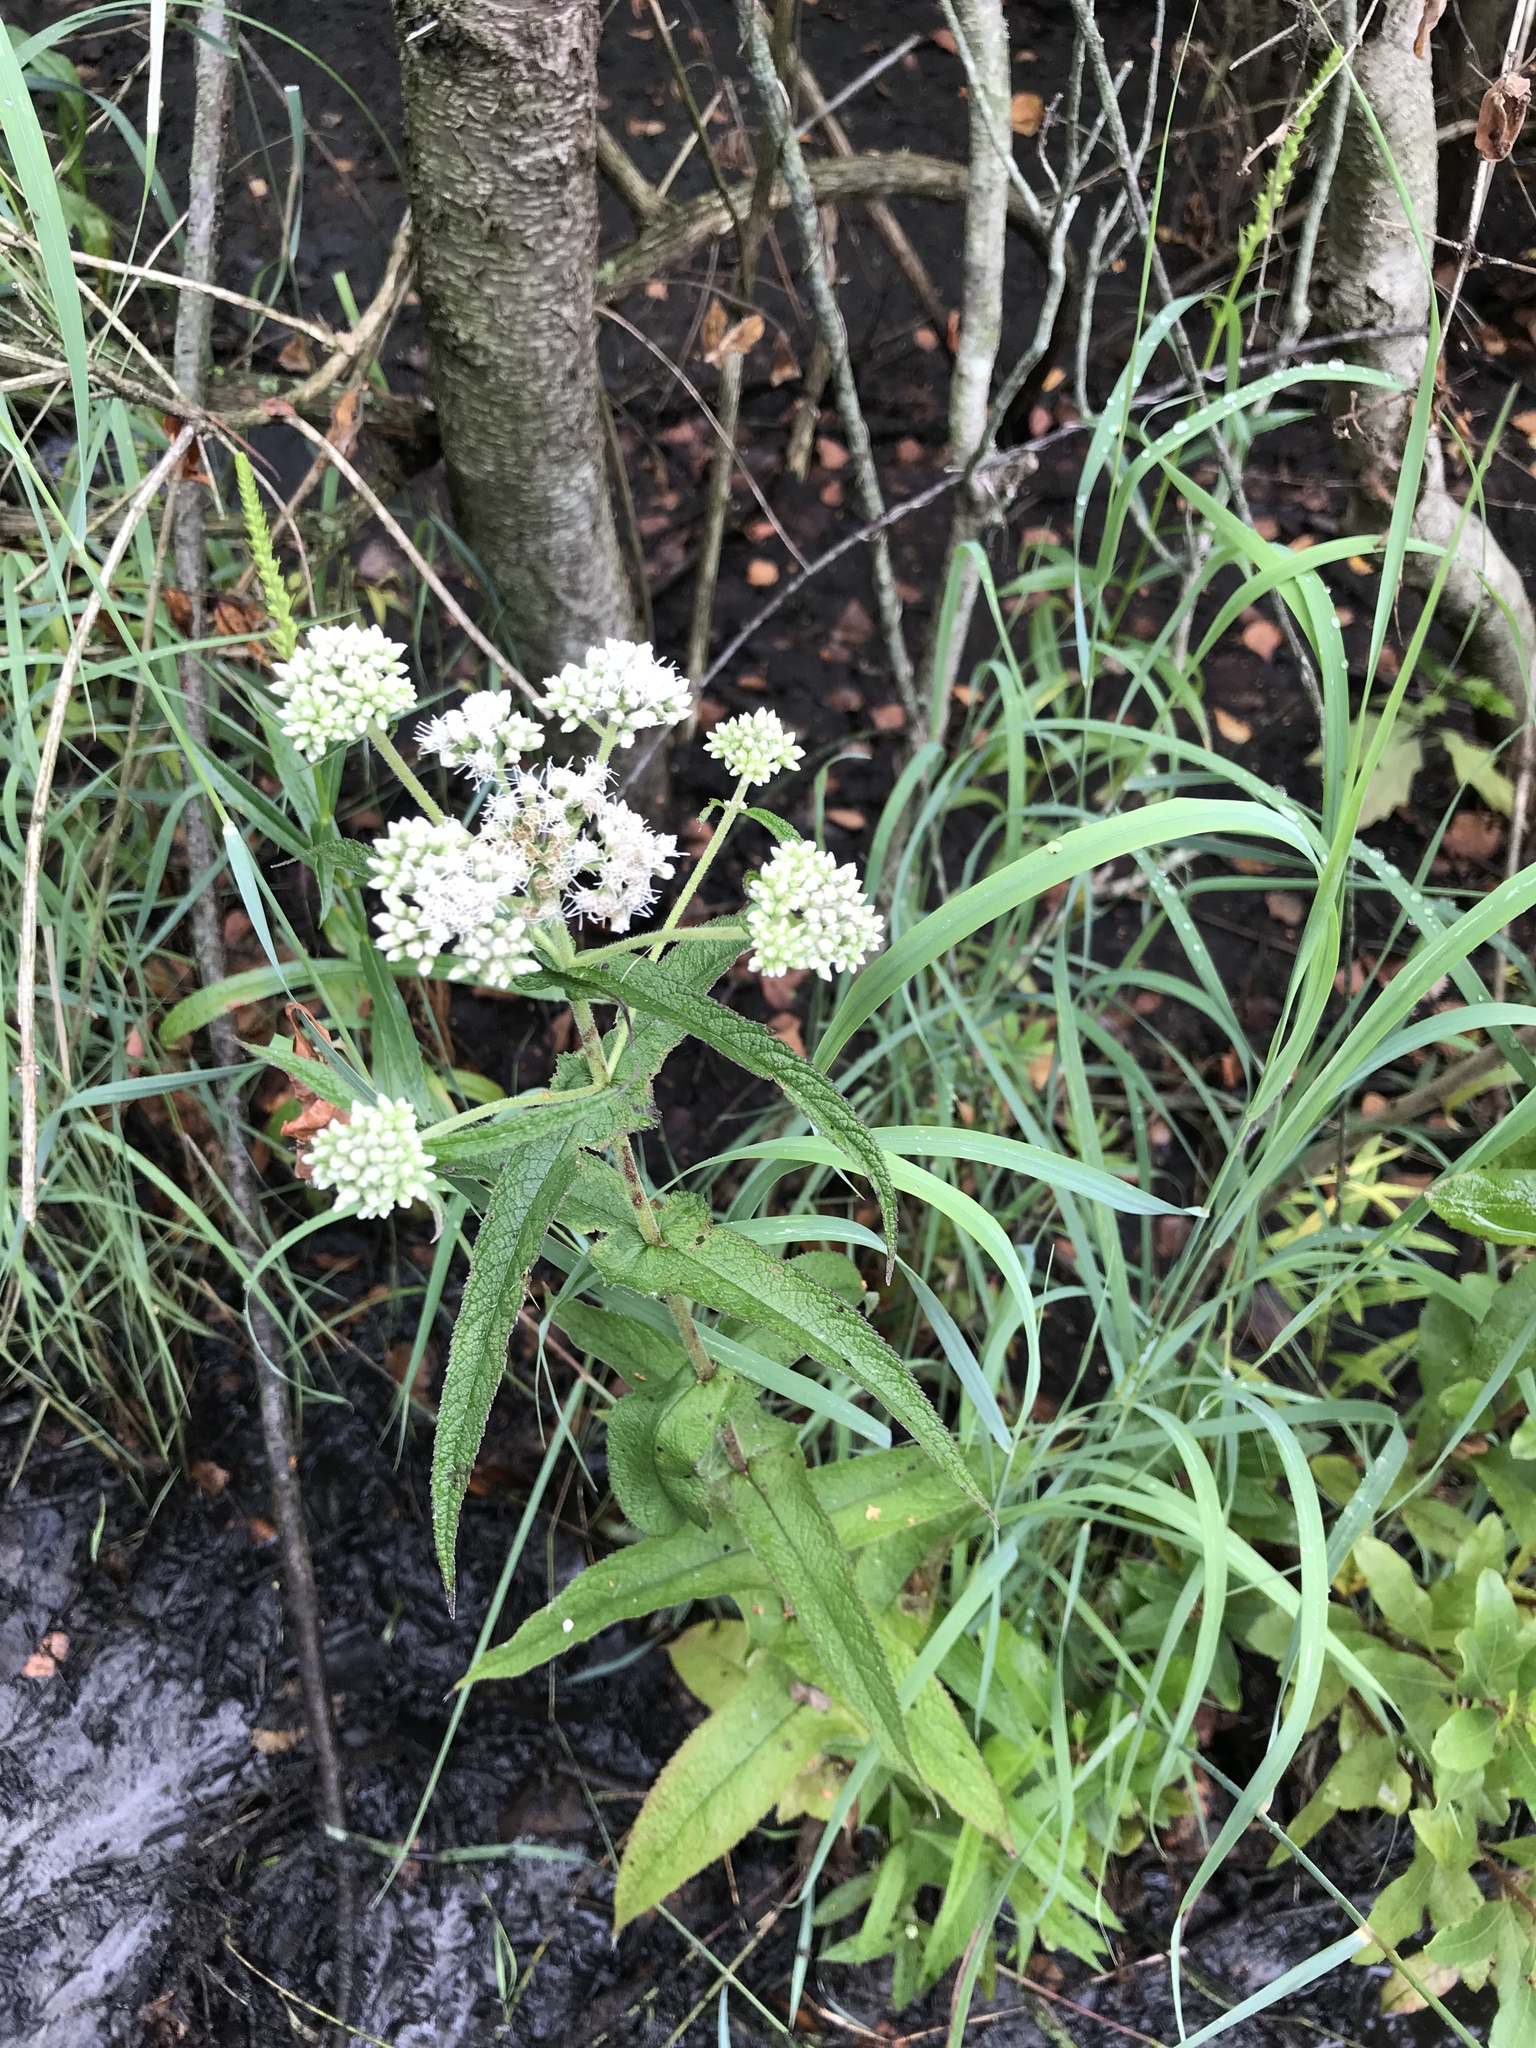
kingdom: Plantae
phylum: Tracheophyta
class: Magnoliopsida
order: Asterales
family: Asteraceae
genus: Eupatorium
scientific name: Eupatorium perfoliatum
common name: Boneset
